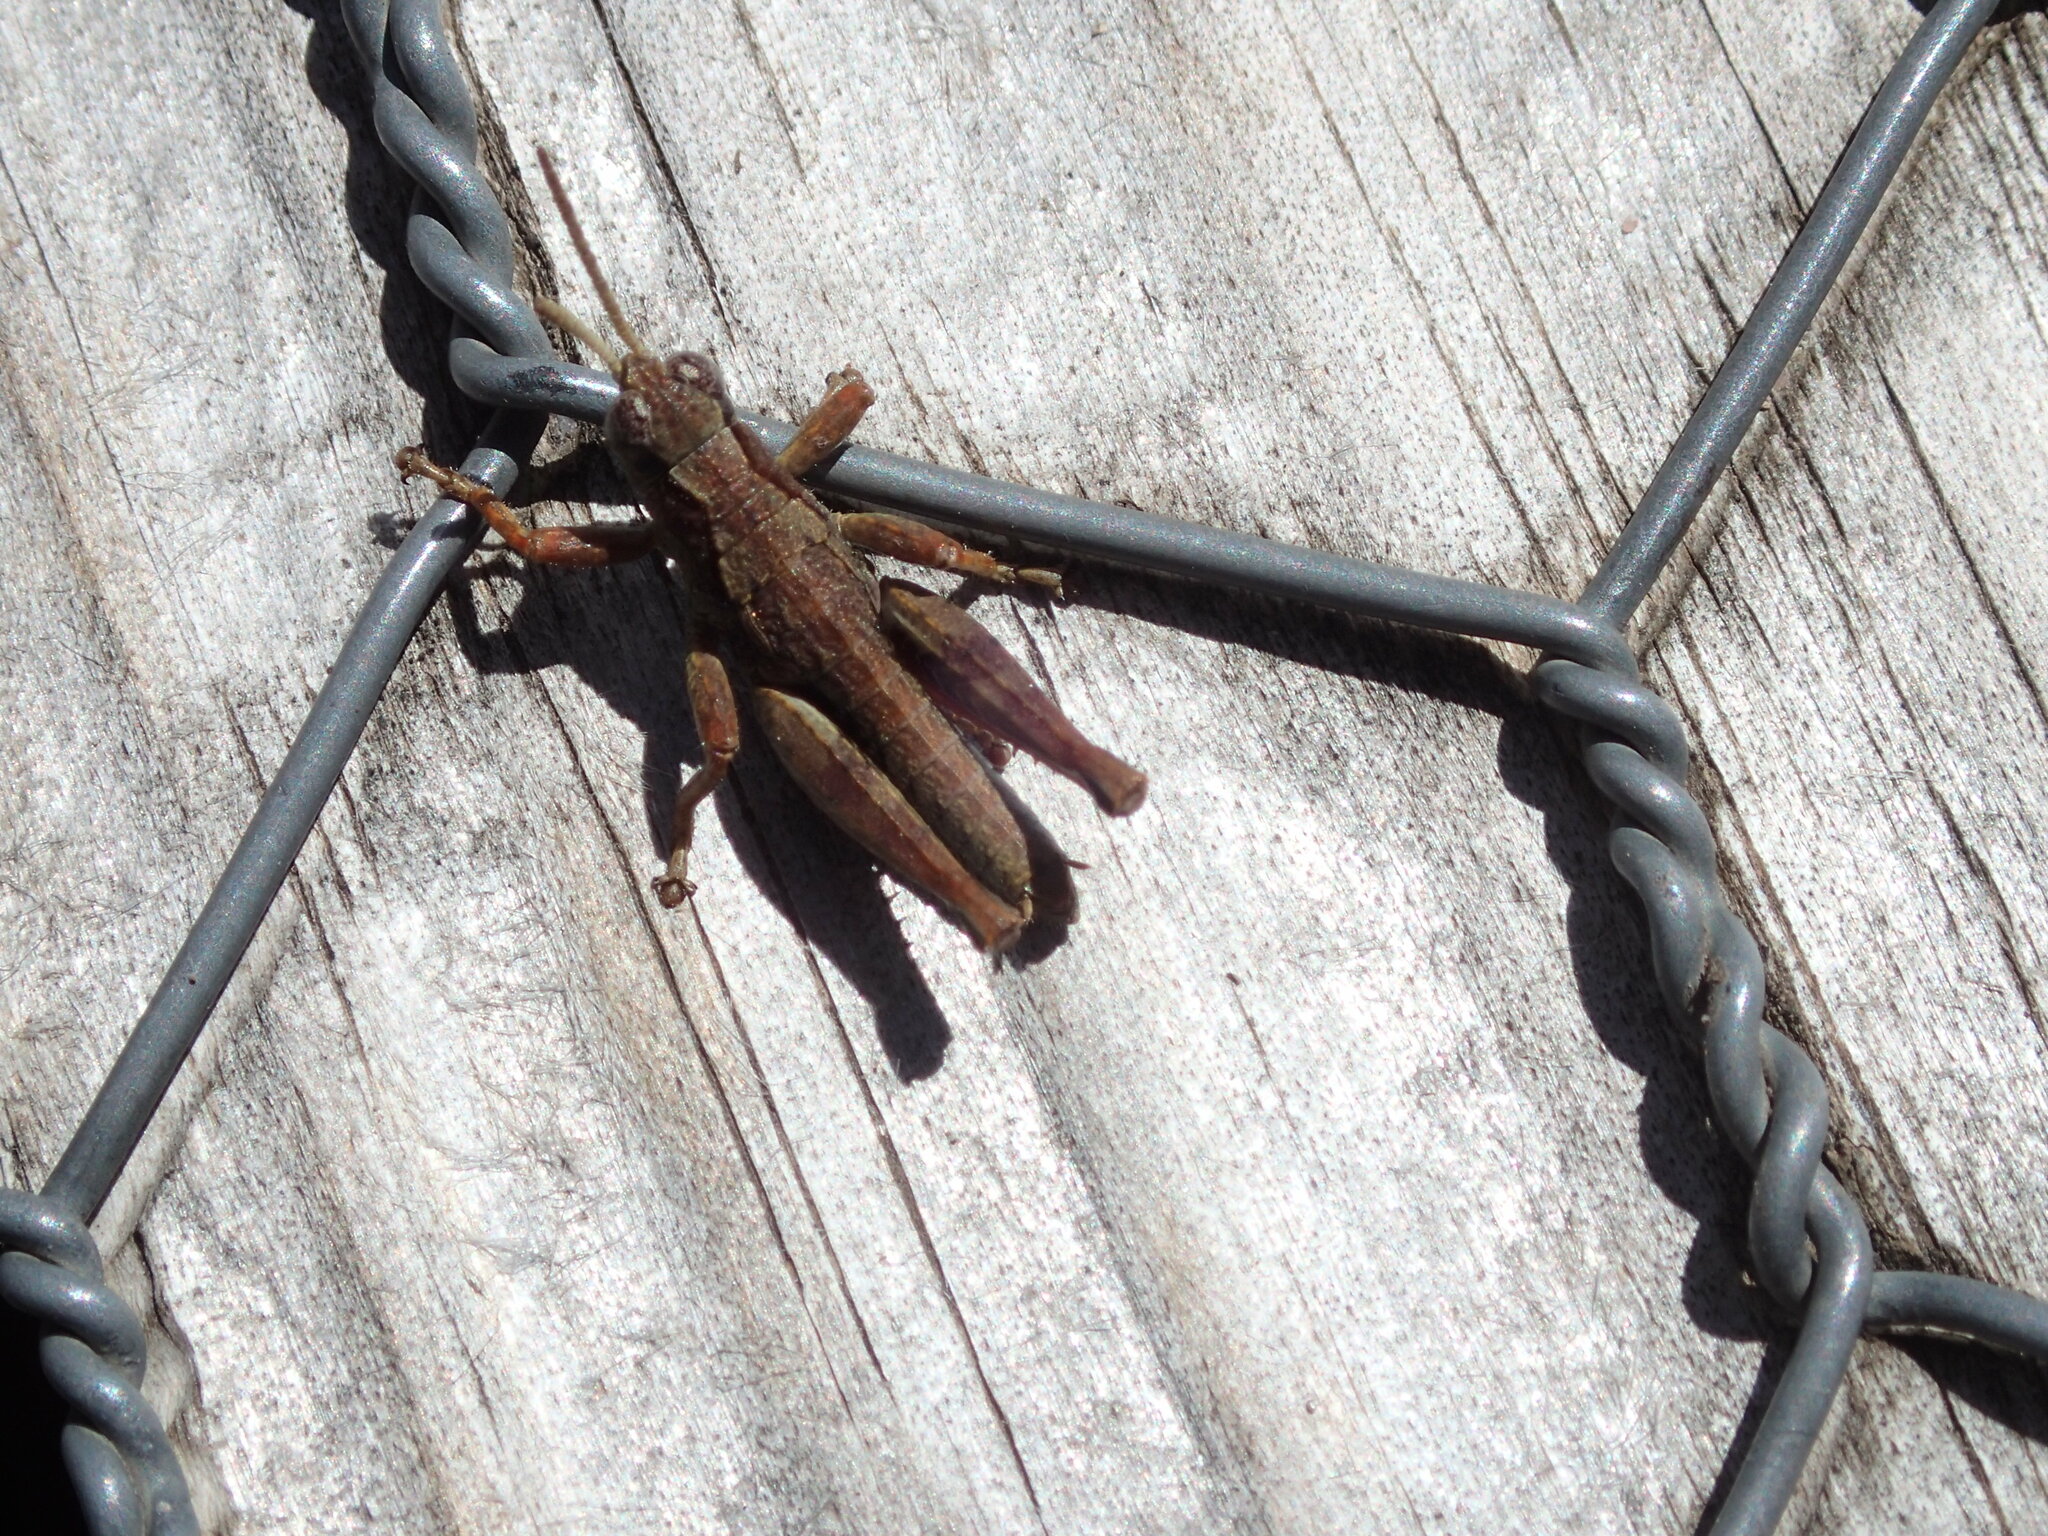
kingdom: Animalia
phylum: Arthropoda
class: Insecta
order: Orthoptera
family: Acrididae
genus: Tasmaniacris
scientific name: Tasmaniacris tasmaniensis
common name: Tasmanian grasshopper
